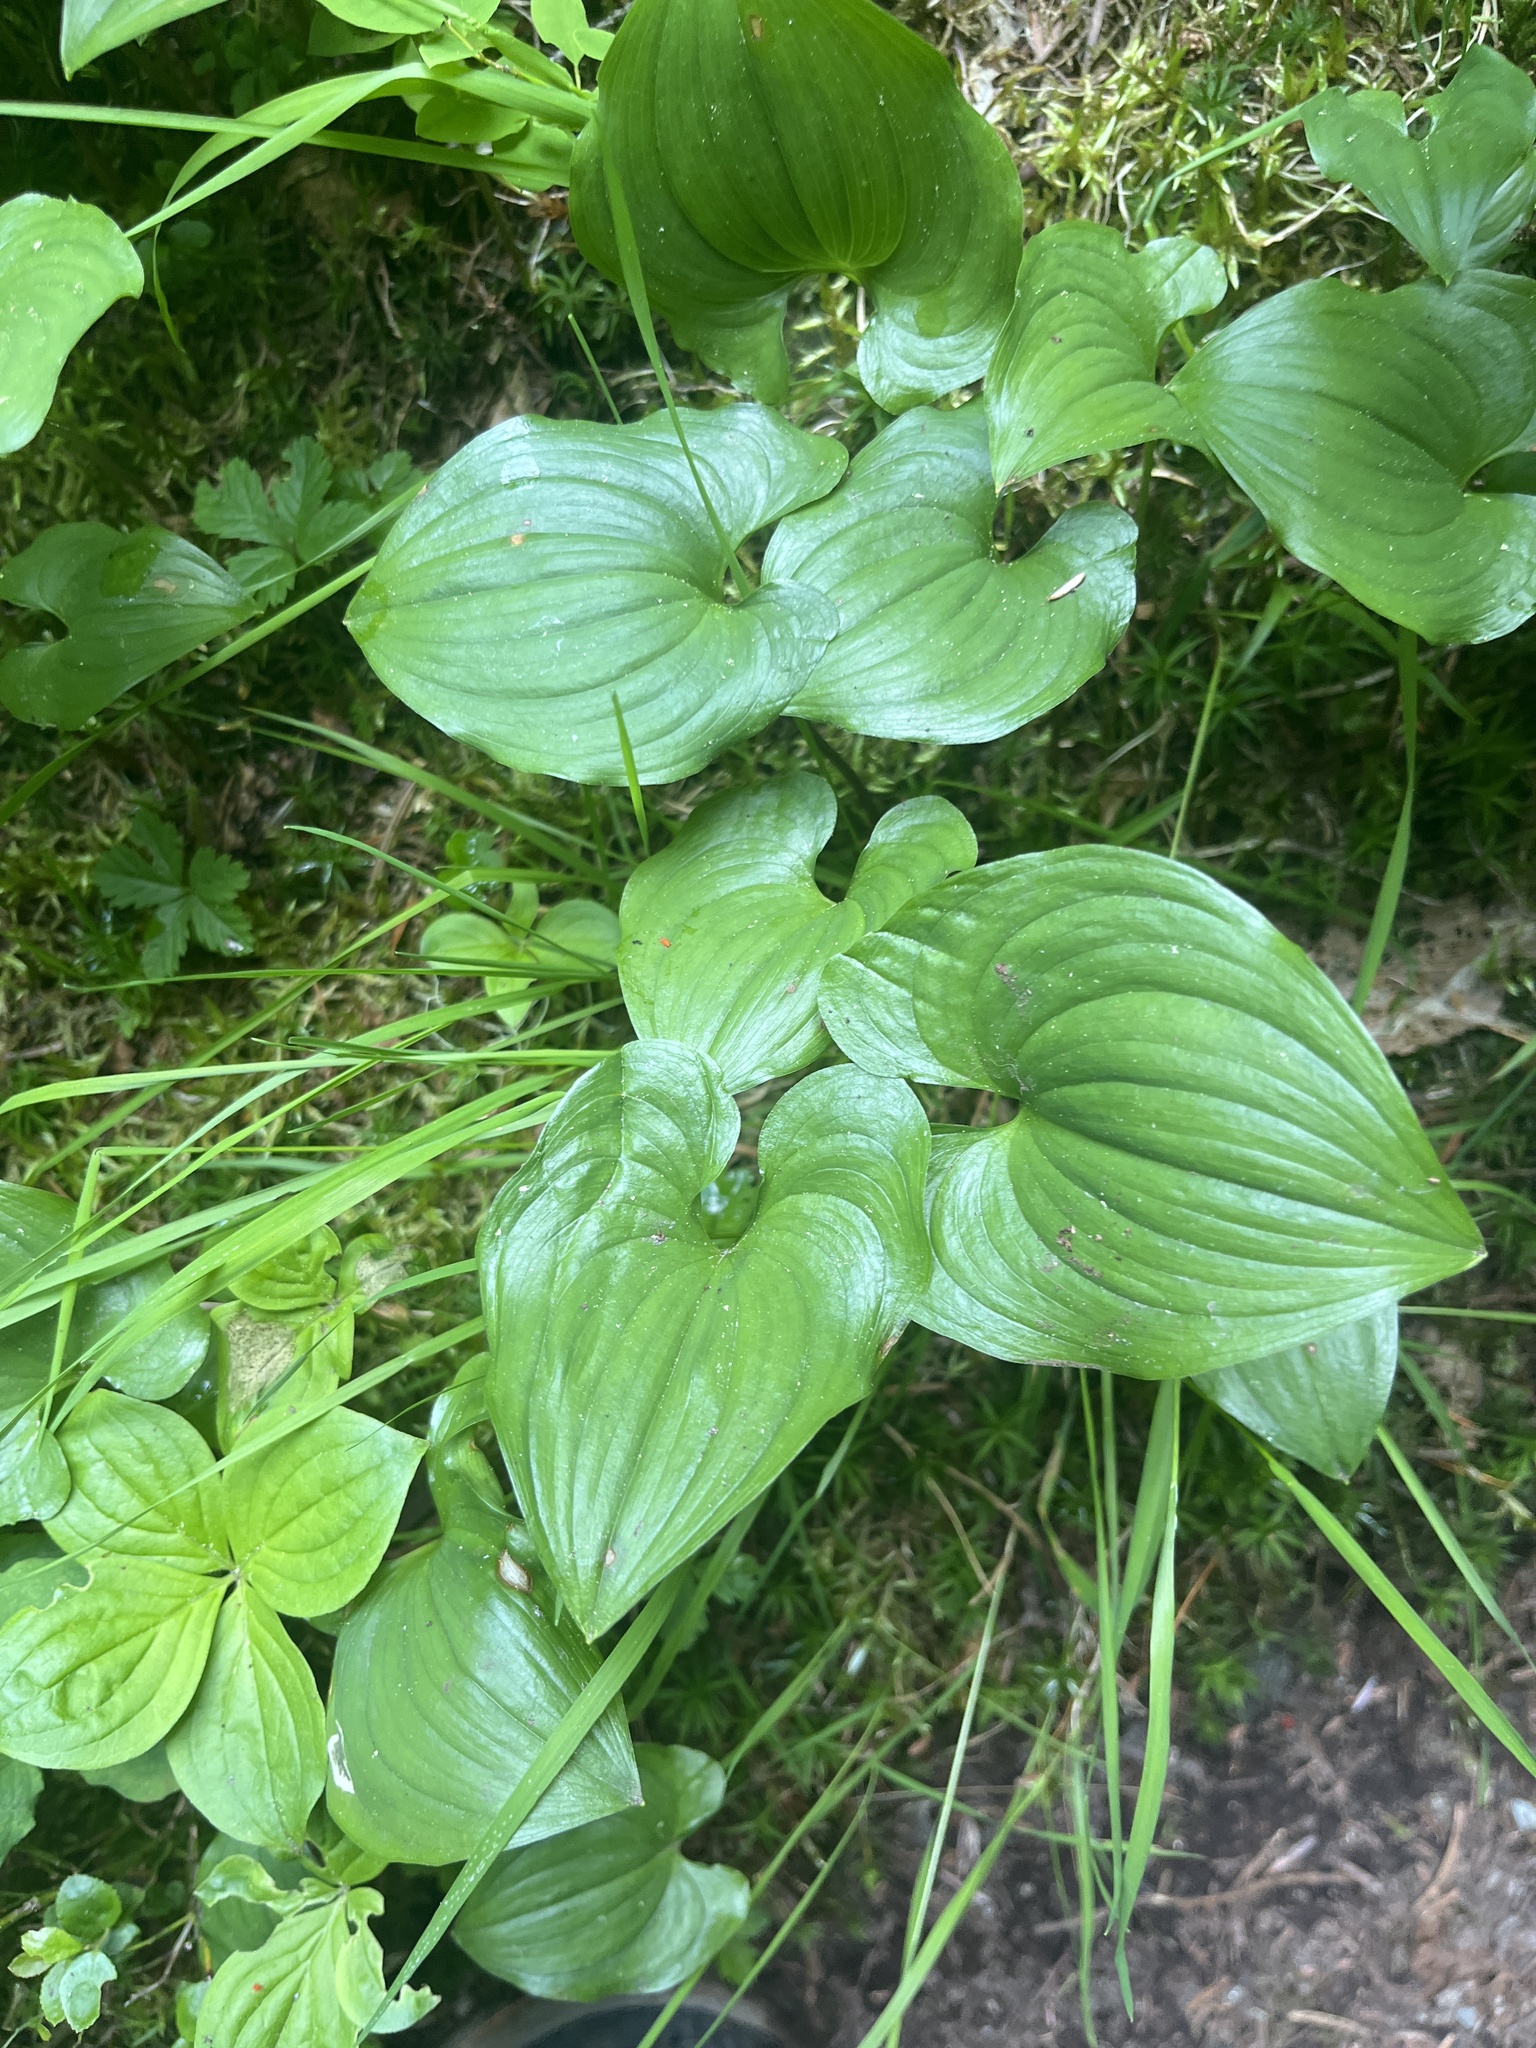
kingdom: Plantae
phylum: Tracheophyta
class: Liliopsida
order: Asparagales
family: Asparagaceae
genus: Maianthemum
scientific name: Maianthemum dilatatum
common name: False lily-of-the-valley
